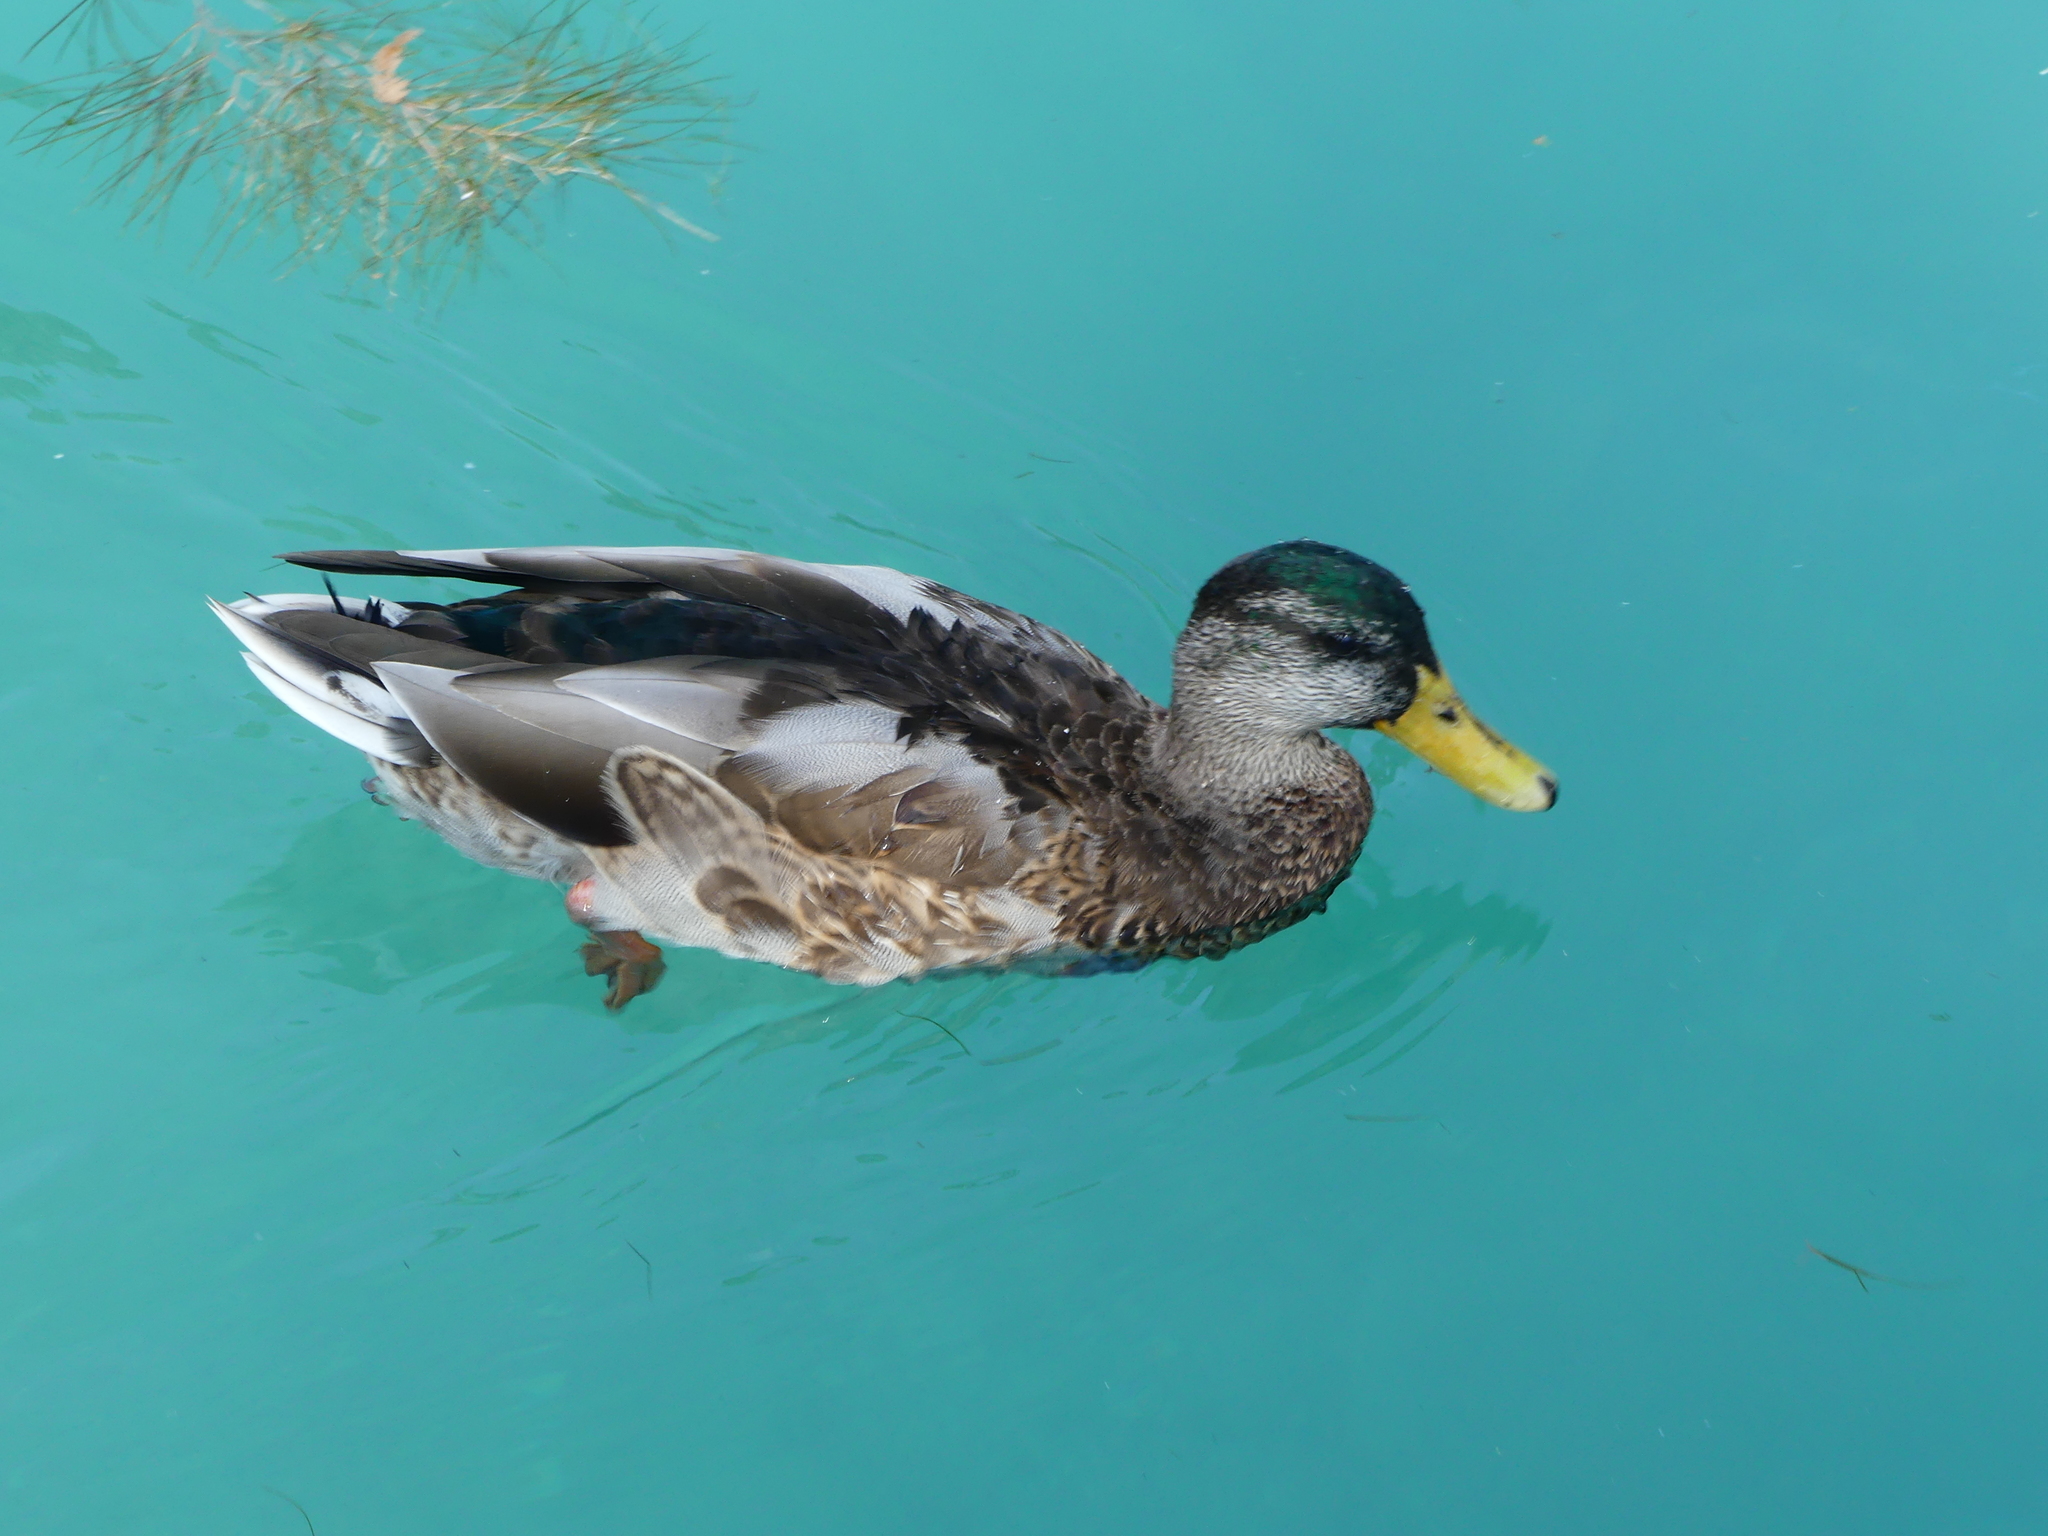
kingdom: Animalia
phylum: Chordata
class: Aves
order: Anseriformes
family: Anatidae
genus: Anas
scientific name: Anas platyrhynchos
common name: Mallard
